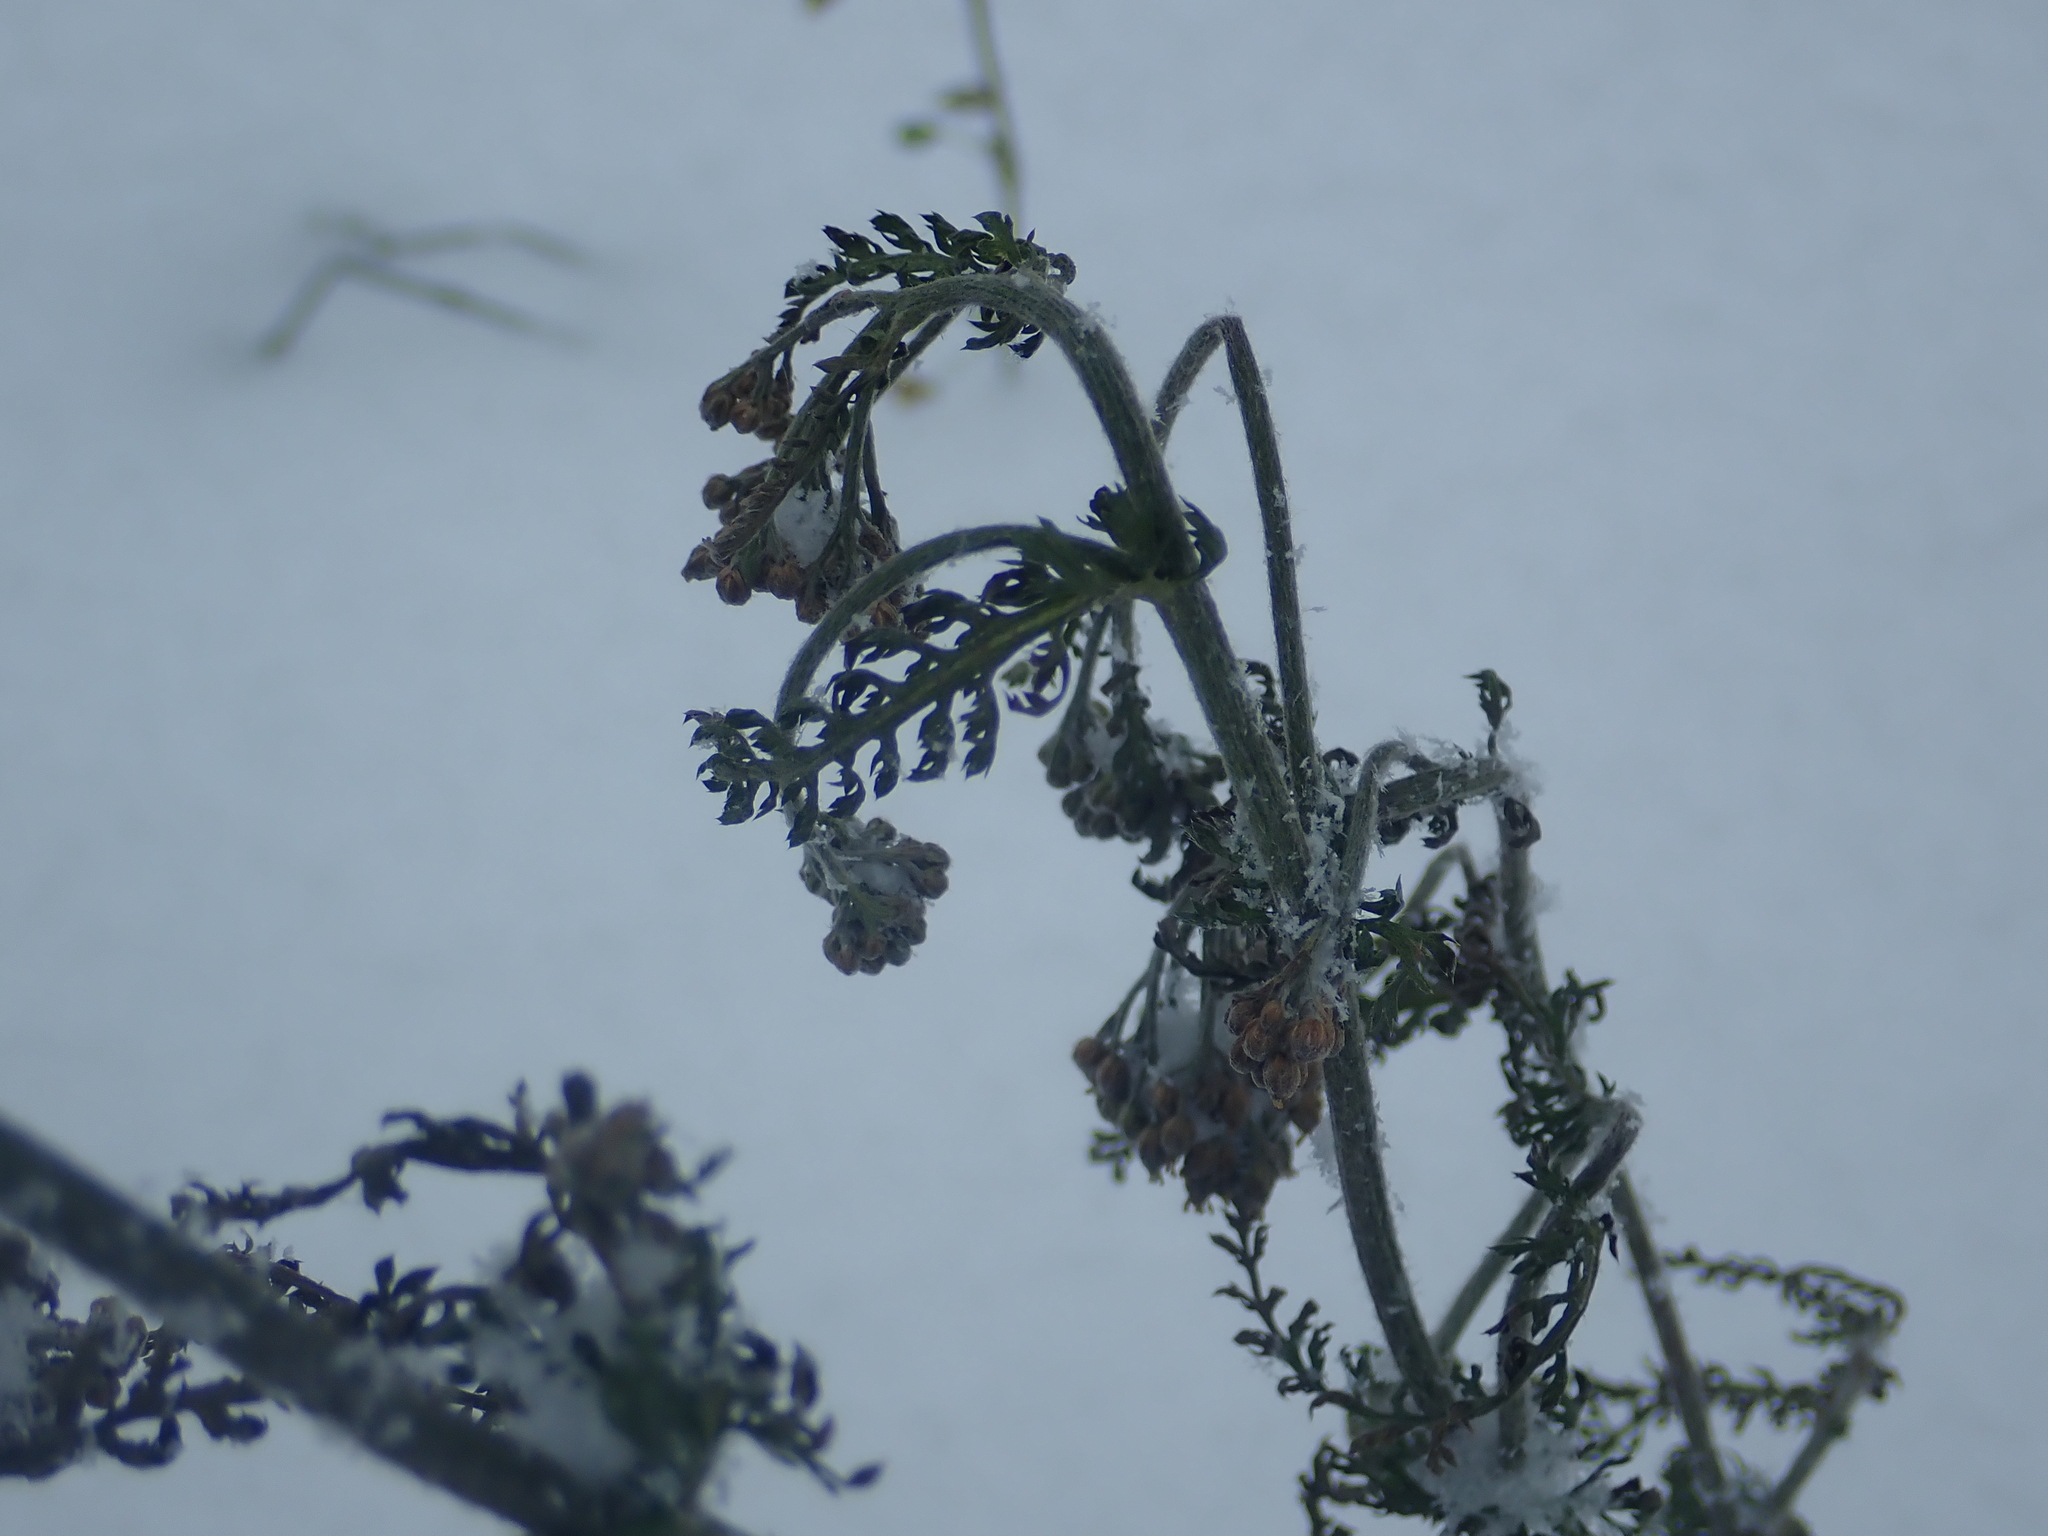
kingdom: Plantae
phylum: Tracheophyta
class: Magnoliopsida
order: Asterales
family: Asteraceae
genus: Achillea
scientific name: Achillea millefolium
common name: Yarrow
